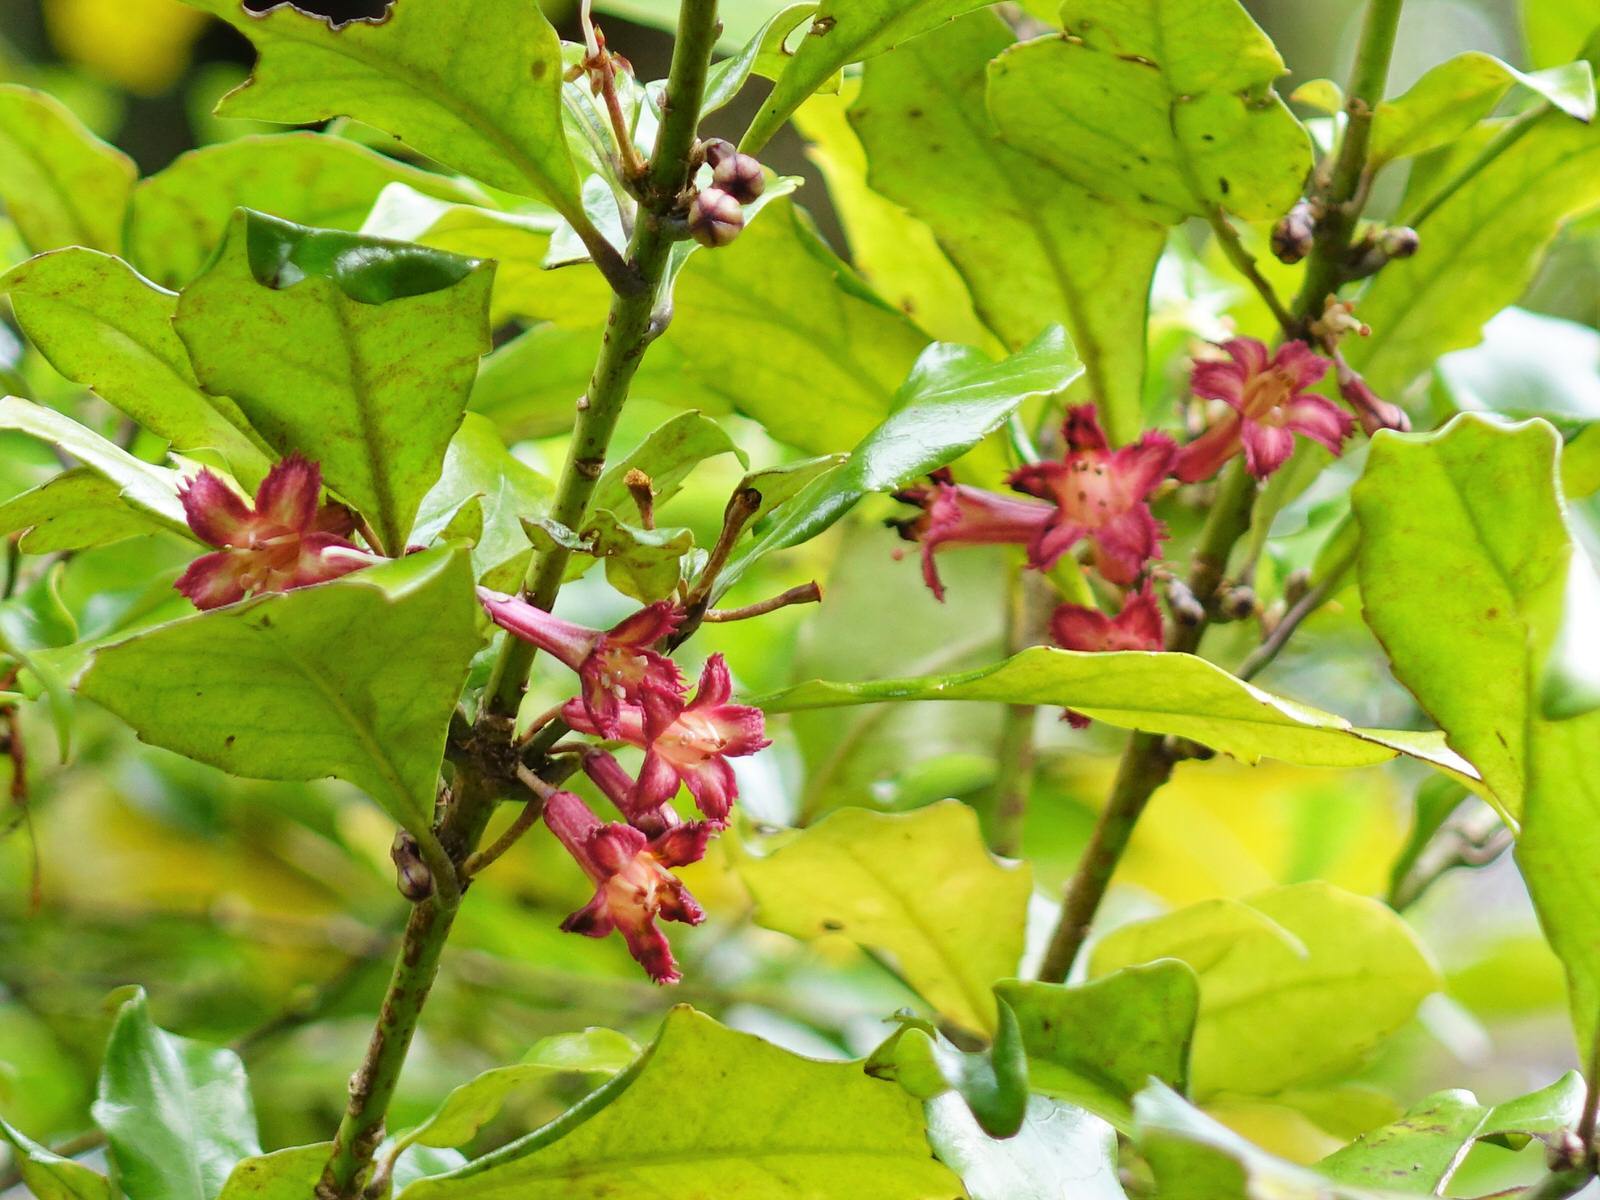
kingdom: Plantae
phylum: Tracheophyta
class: Magnoliopsida
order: Asterales
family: Alseuosmiaceae
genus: Alseuosmia
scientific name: Alseuosmia macrophylla
